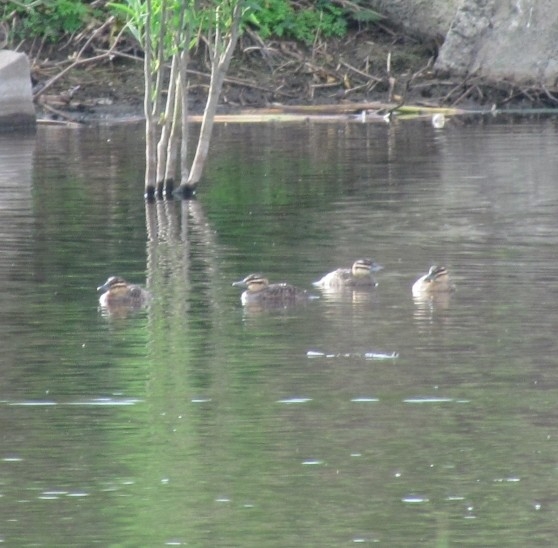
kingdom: Animalia
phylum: Chordata
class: Aves
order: Anseriformes
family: Anatidae
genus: Nomonyx
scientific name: Nomonyx dominicus
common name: Masked duck
